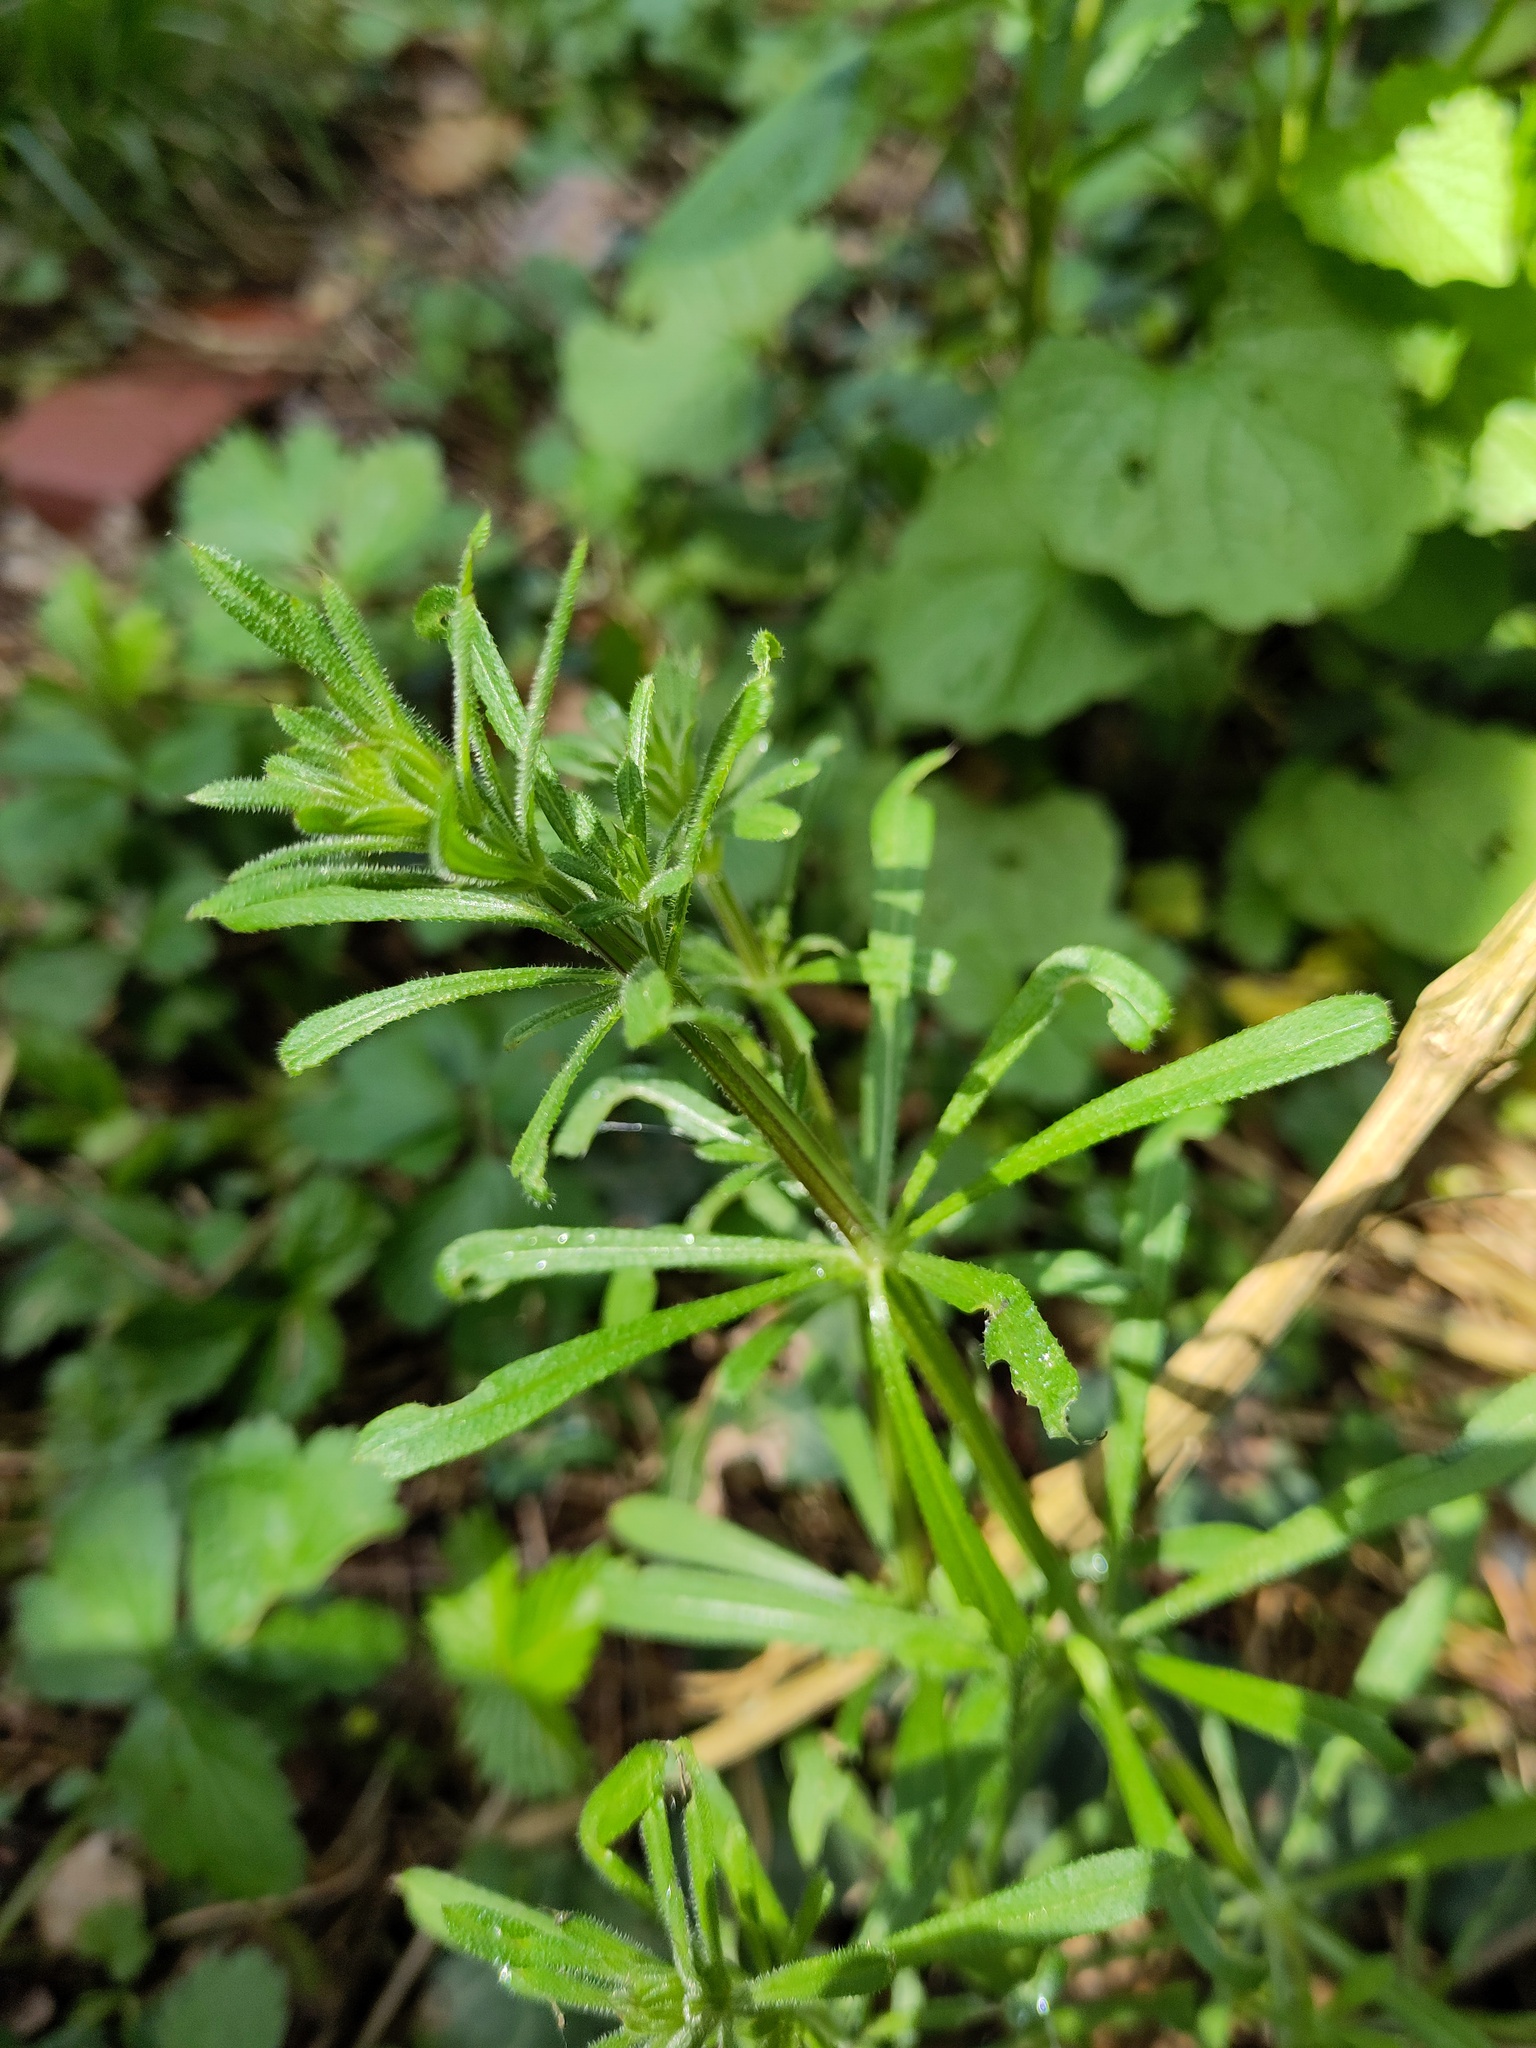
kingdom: Plantae
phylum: Tracheophyta
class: Magnoliopsida
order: Gentianales
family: Rubiaceae
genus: Galium
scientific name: Galium aparine
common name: Cleavers
